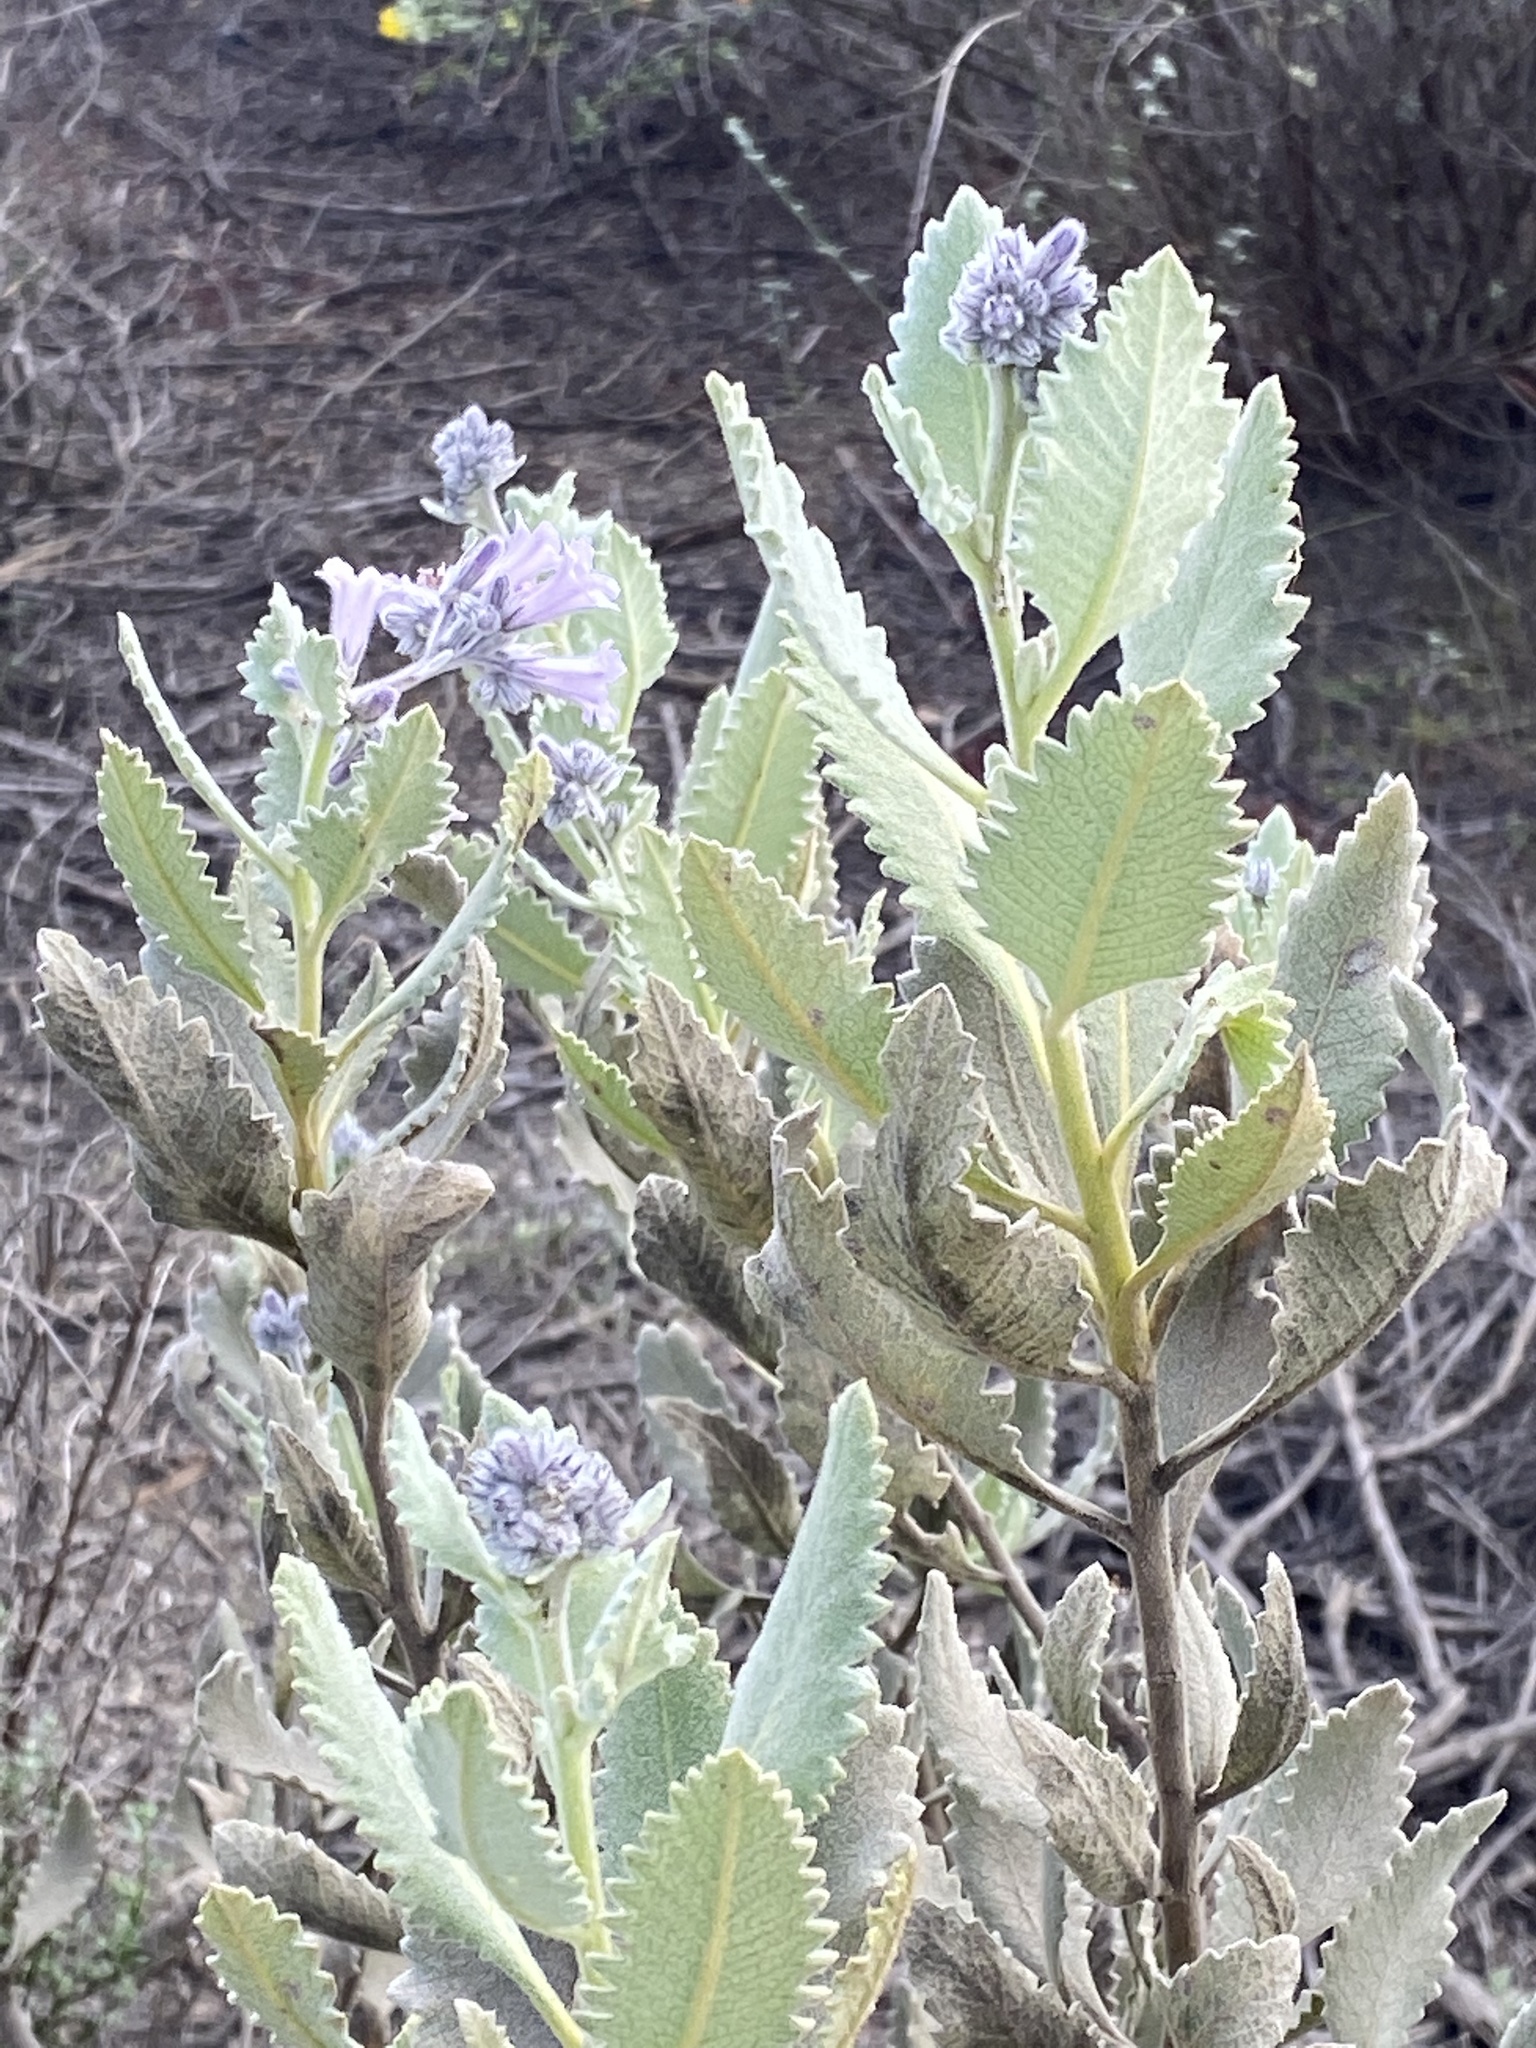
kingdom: Plantae
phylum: Tracheophyta
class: Magnoliopsida
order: Boraginales
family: Namaceae
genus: Eriodictyon
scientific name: Eriodictyon crassifolium
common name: Thick-leaf yerba-santa
